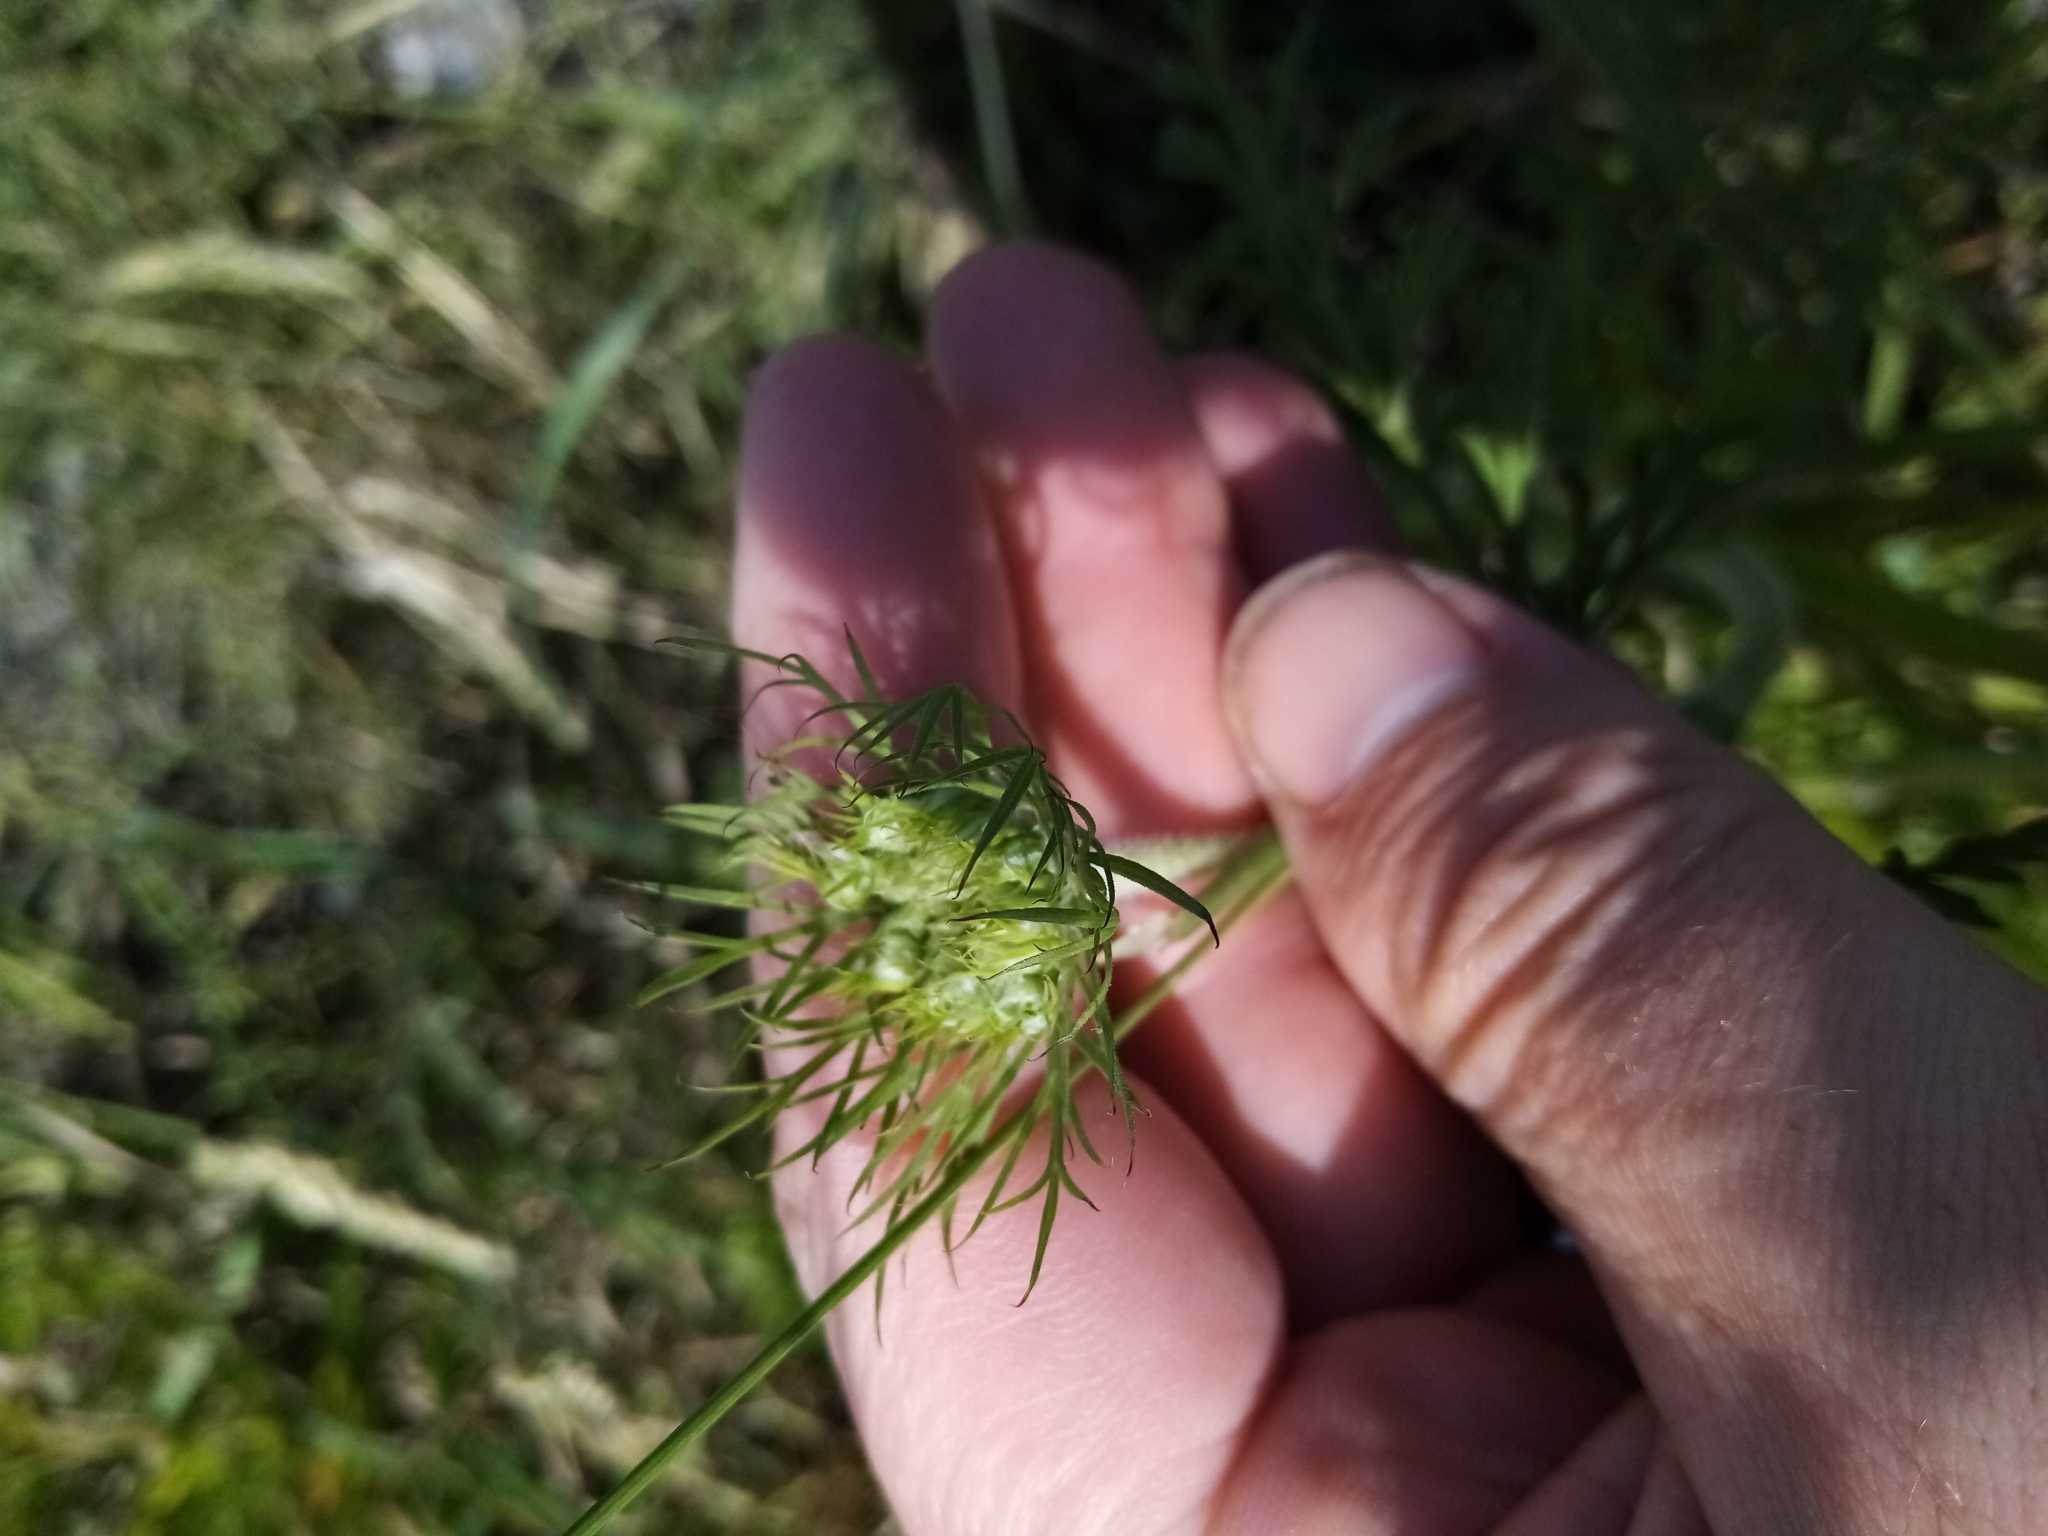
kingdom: Plantae
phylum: Tracheophyta
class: Magnoliopsida
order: Apiales
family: Apiaceae
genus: Daucus
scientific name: Daucus carota
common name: Wild carrot
